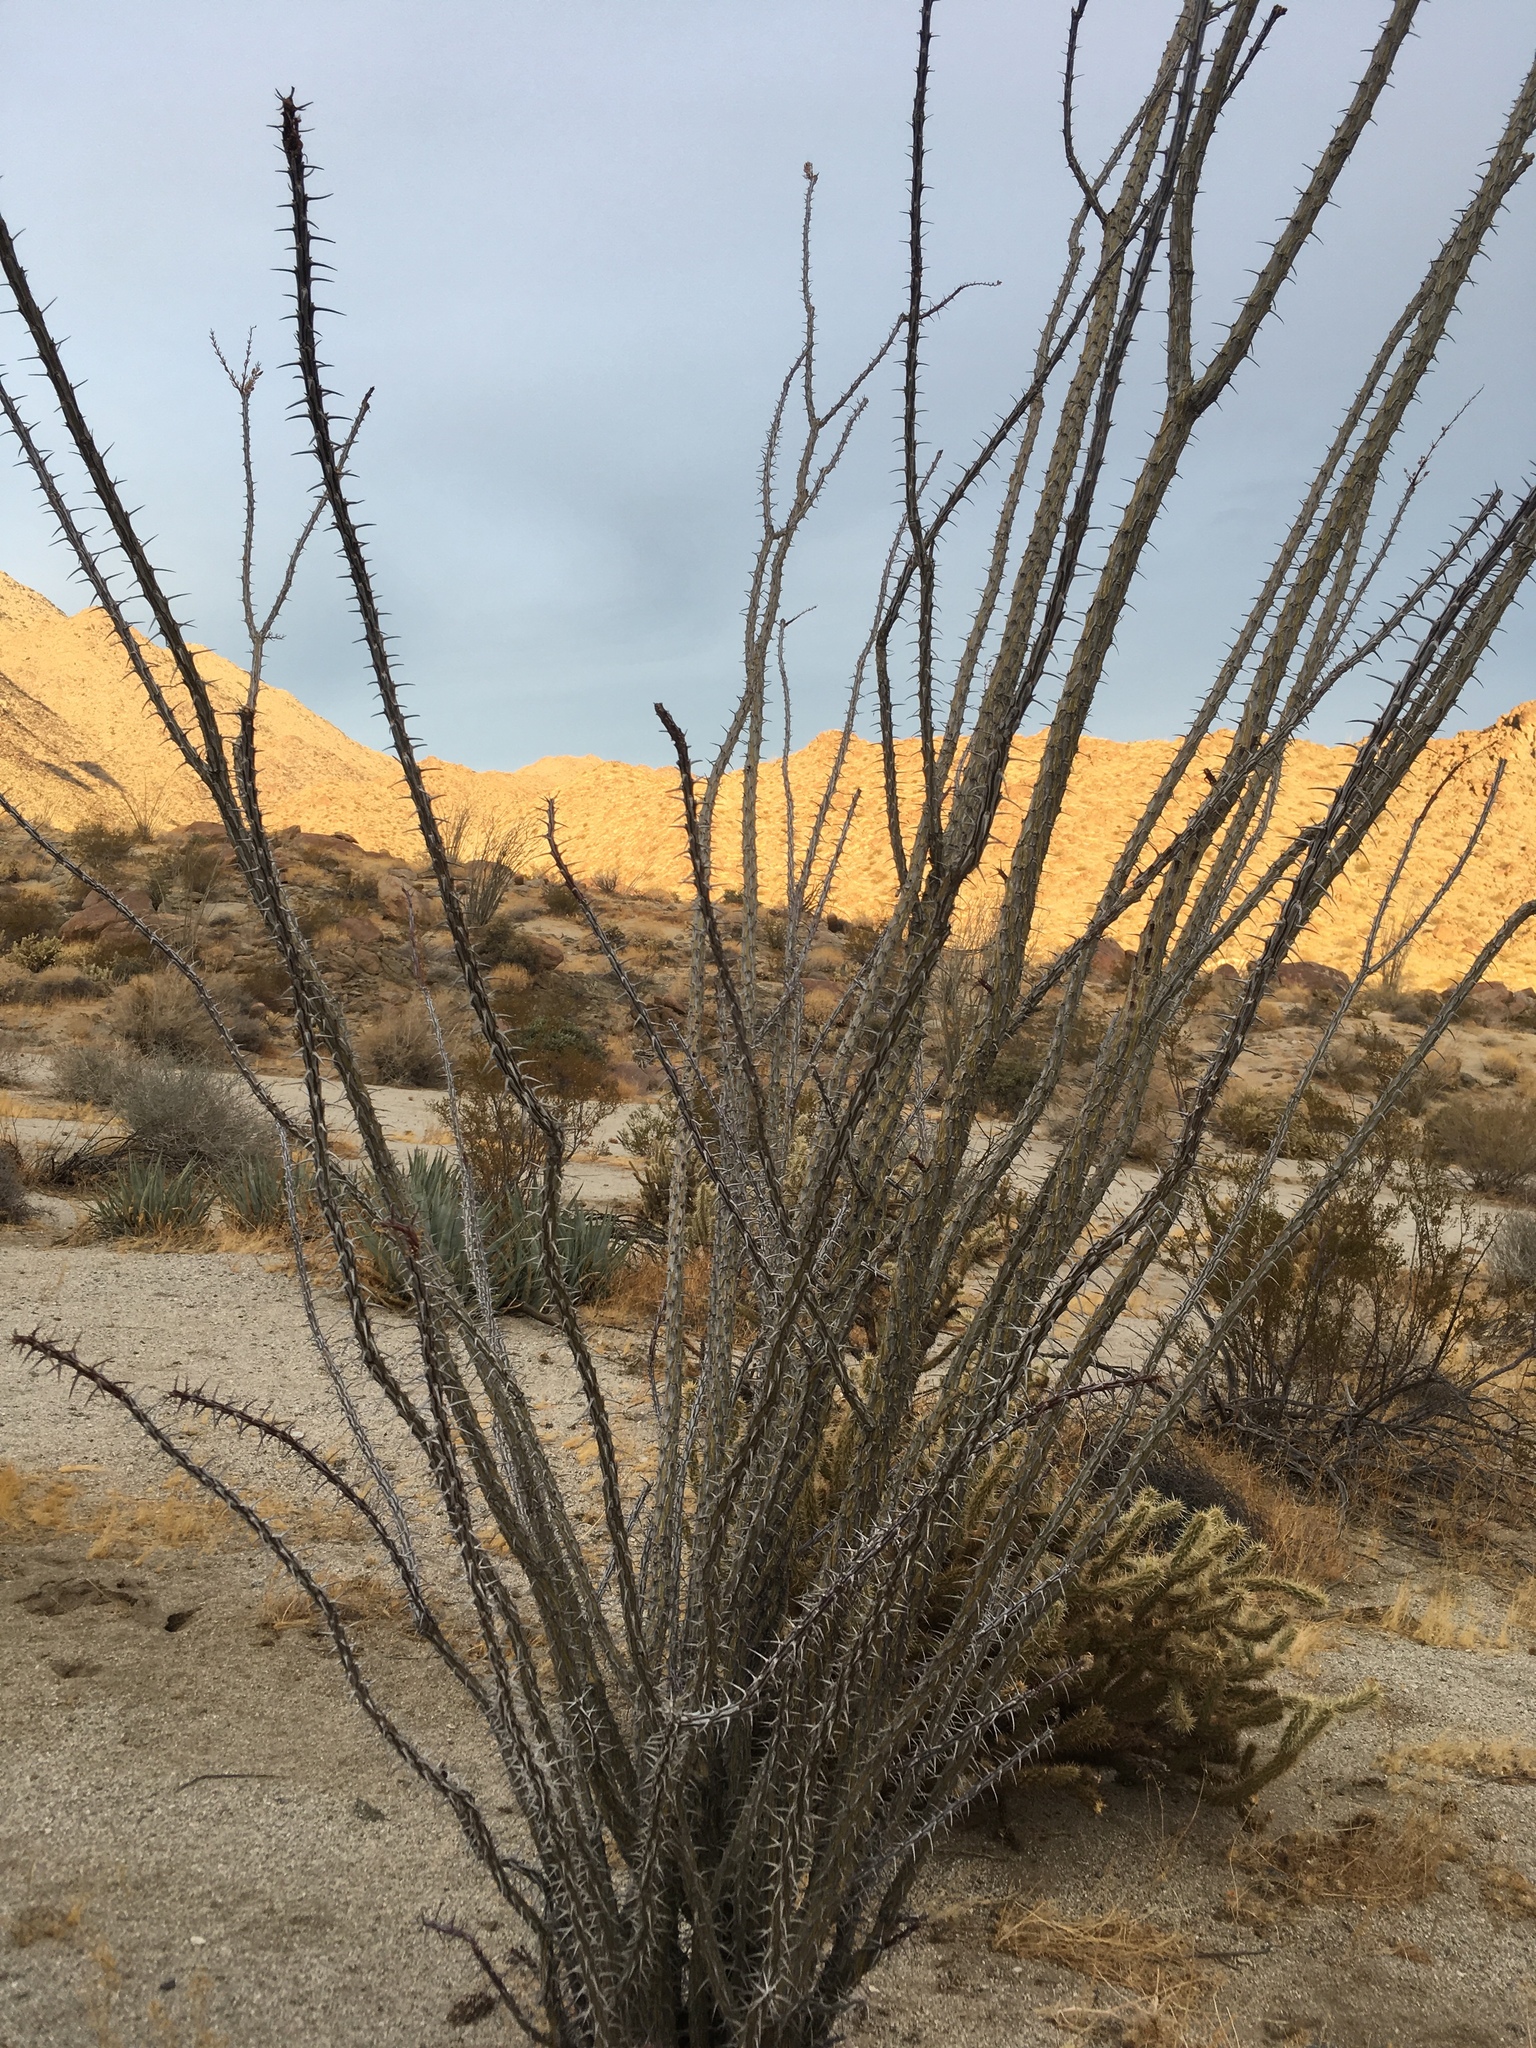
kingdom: Plantae
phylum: Tracheophyta
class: Magnoliopsida
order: Ericales
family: Fouquieriaceae
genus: Fouquieria
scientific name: Fouquieria splendens
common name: Vine-cactus
